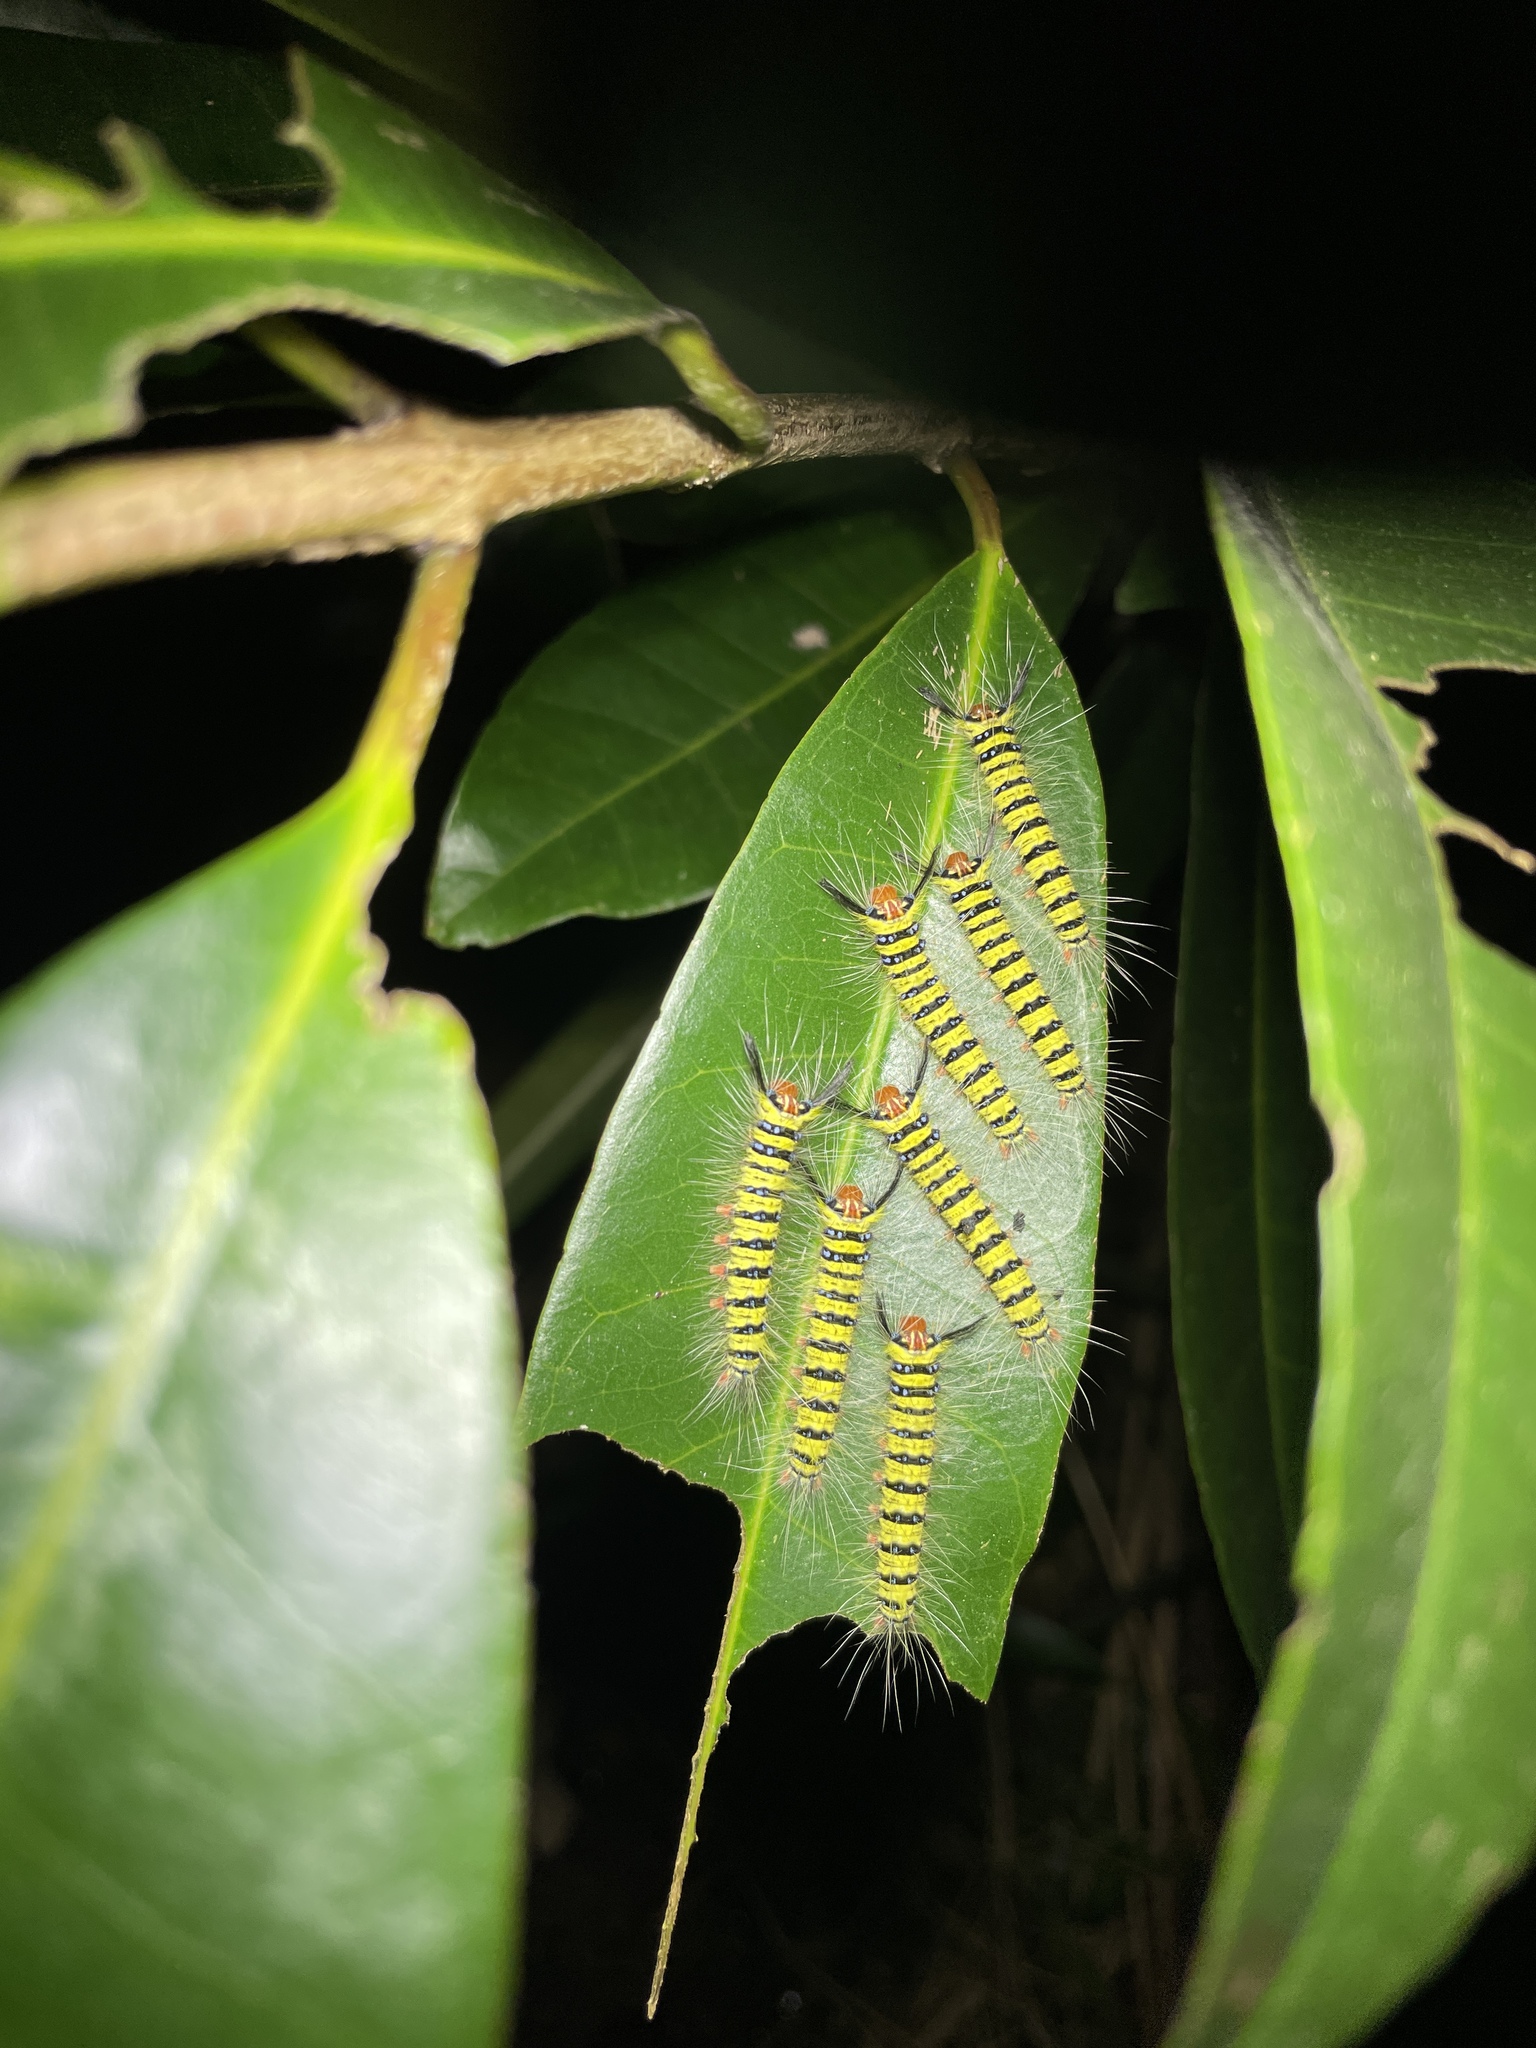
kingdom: Animalia
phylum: Arthropoda
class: Insecta
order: Lepidoptera
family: Lasiocampidae
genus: Trabala
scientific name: Trabala pallida
